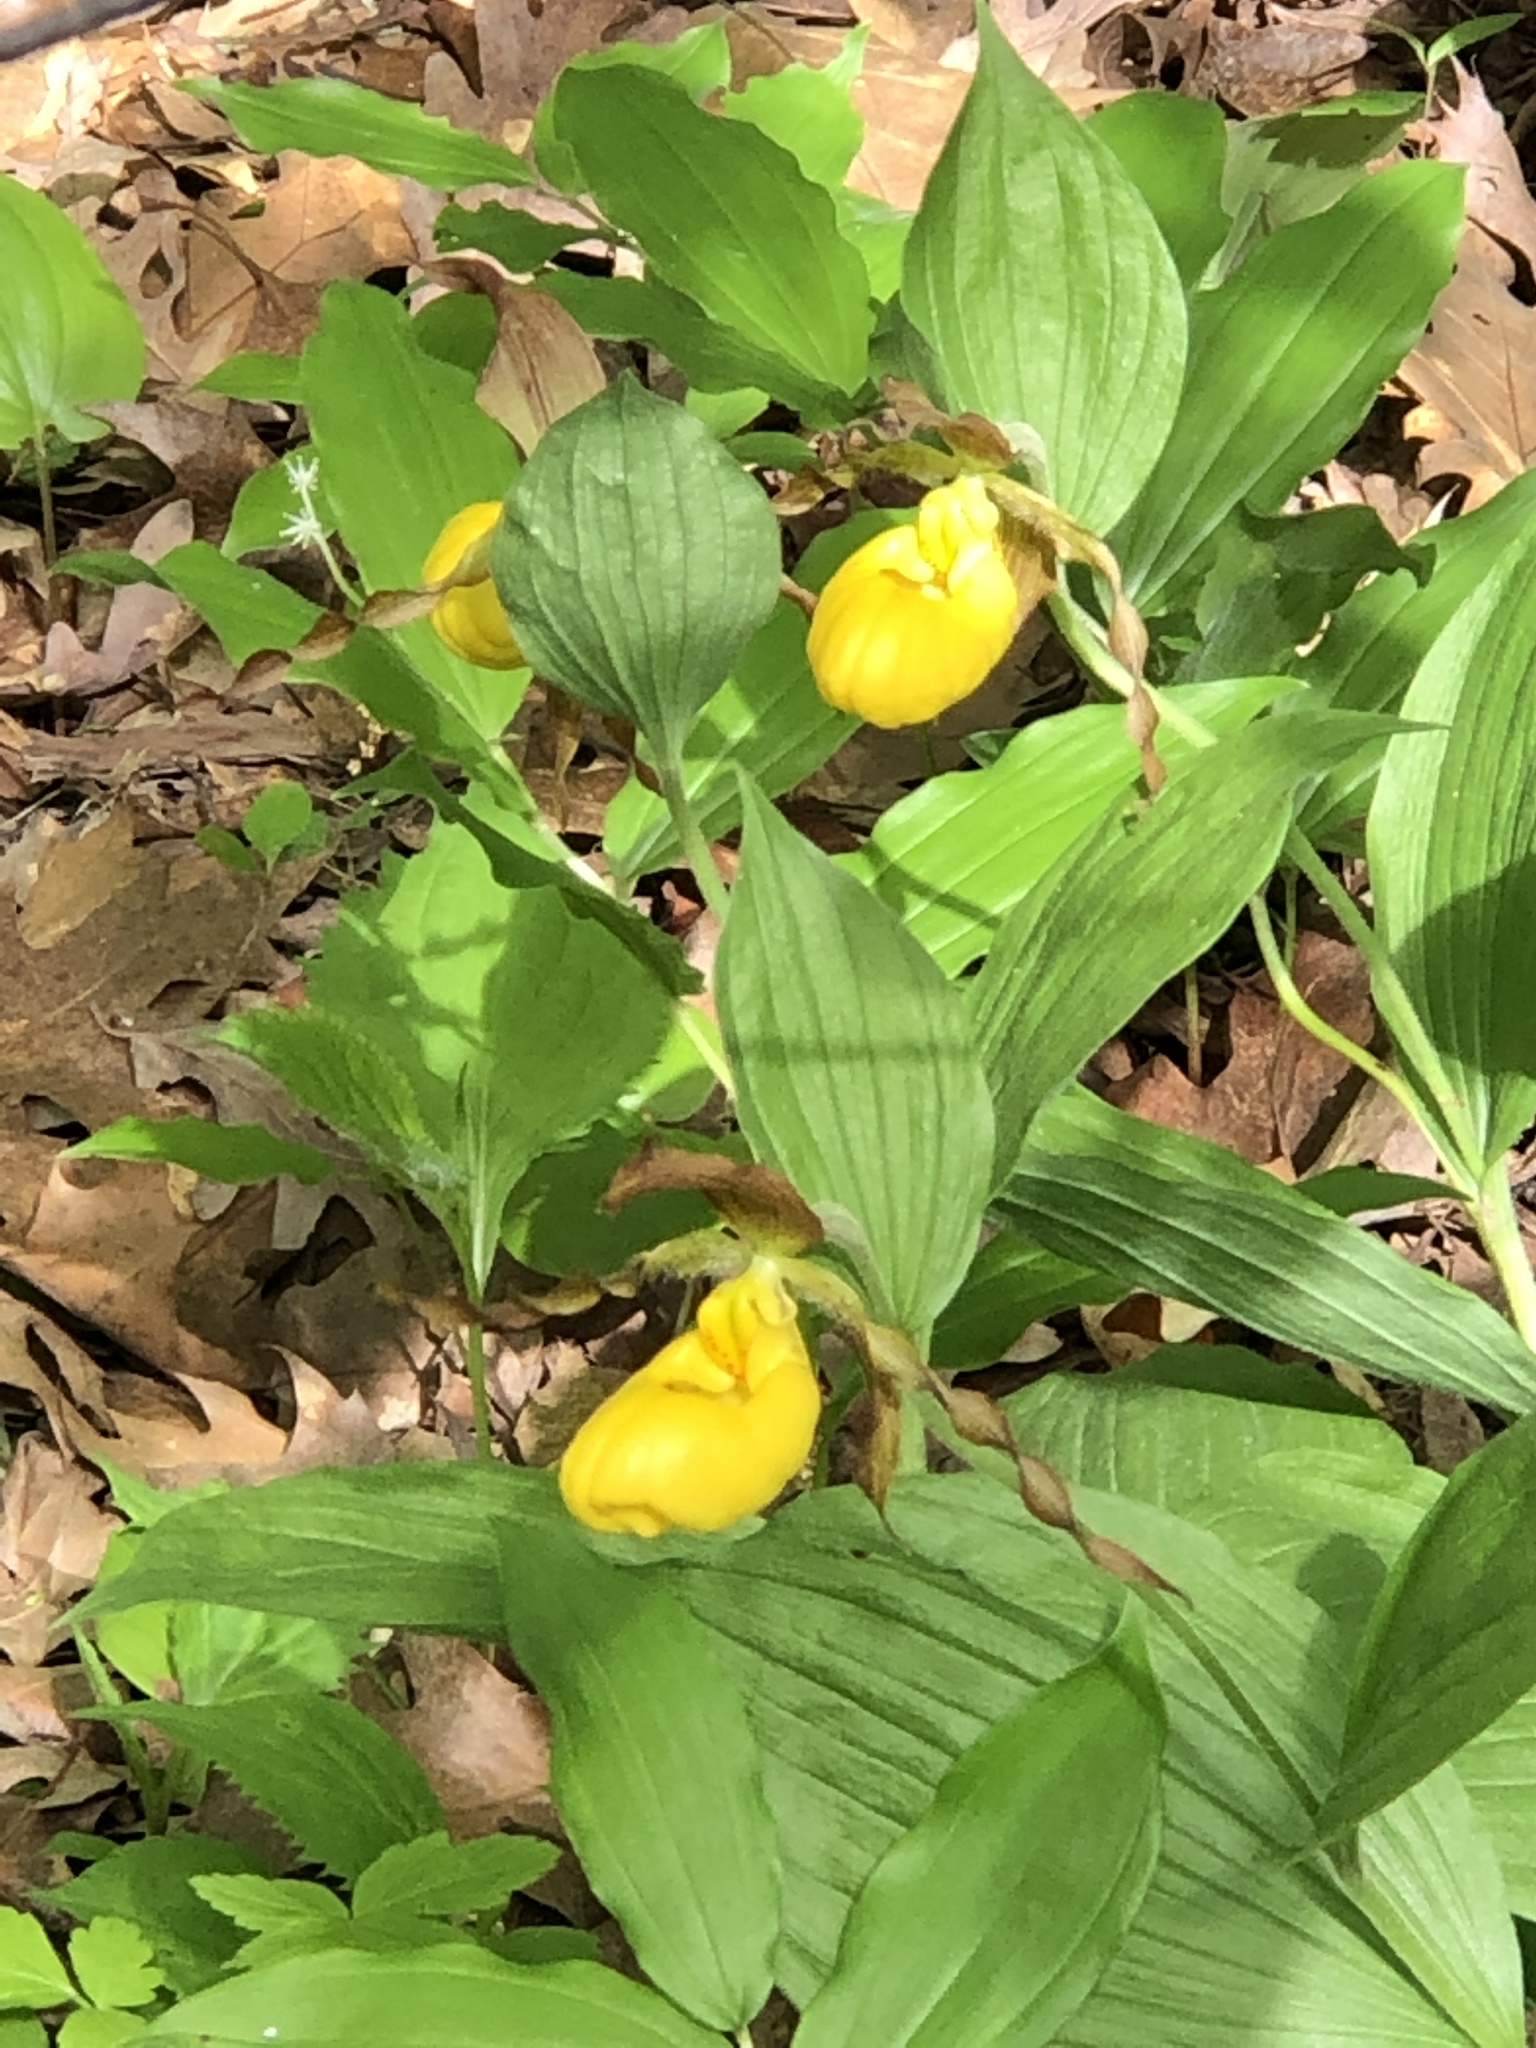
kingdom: Plantae
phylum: Tracheophyta
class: Liliopsida
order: Asparagales
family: Orchidaceae
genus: Cypripedium
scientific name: Cypripedium parviflorum
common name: American yellow lady's-slipper
